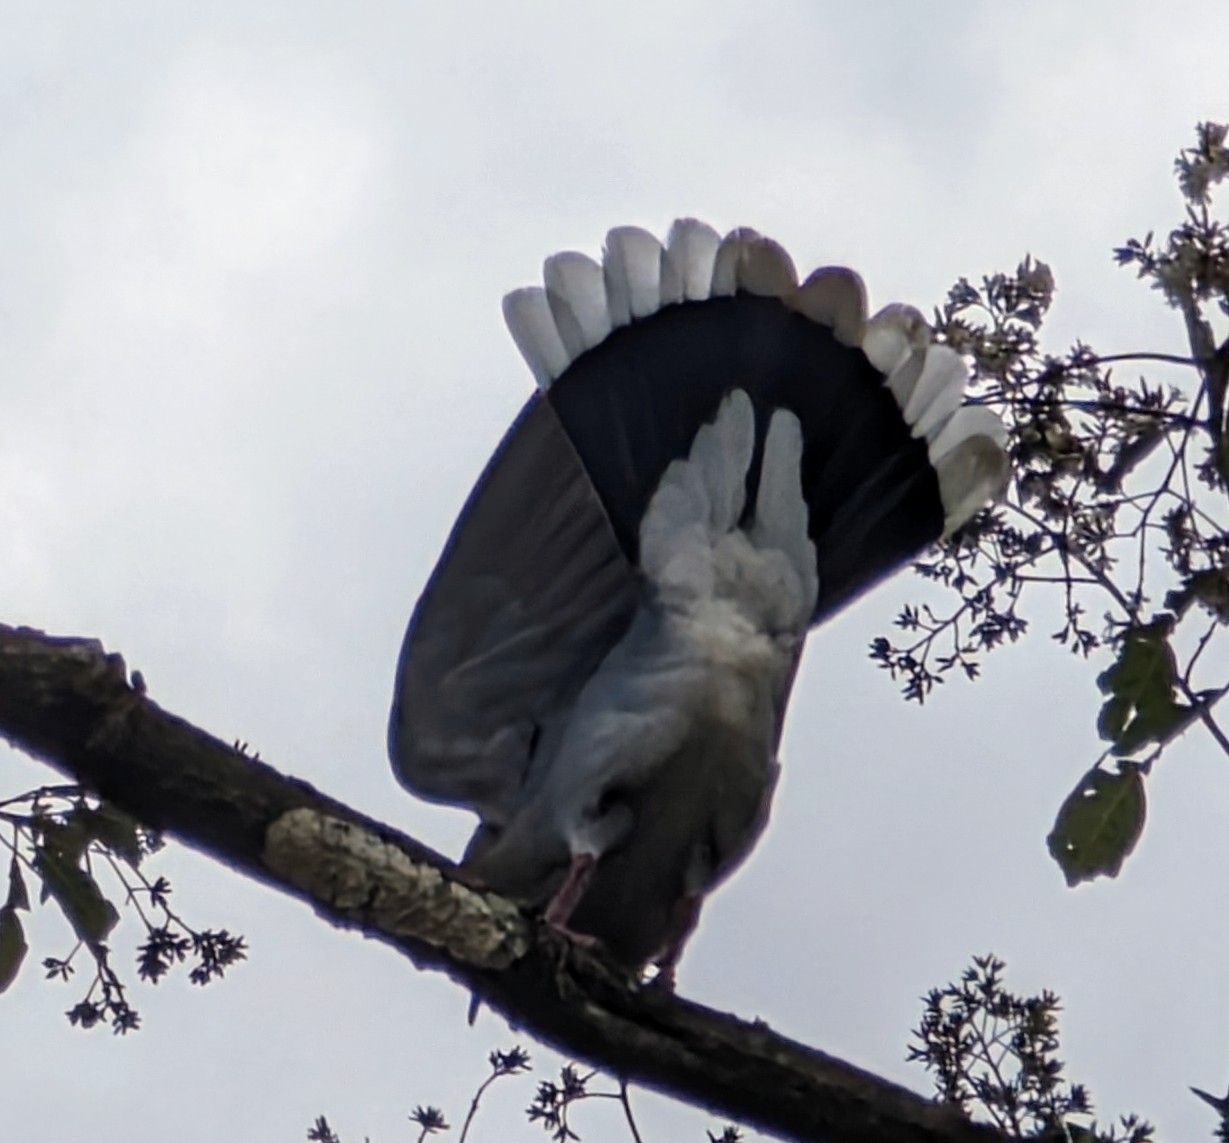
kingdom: Animalia
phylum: Chordata
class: Aves
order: Columbiformes
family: Columbidae
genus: Zenaida
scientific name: Zenaida asiatica
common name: White-winged dove
